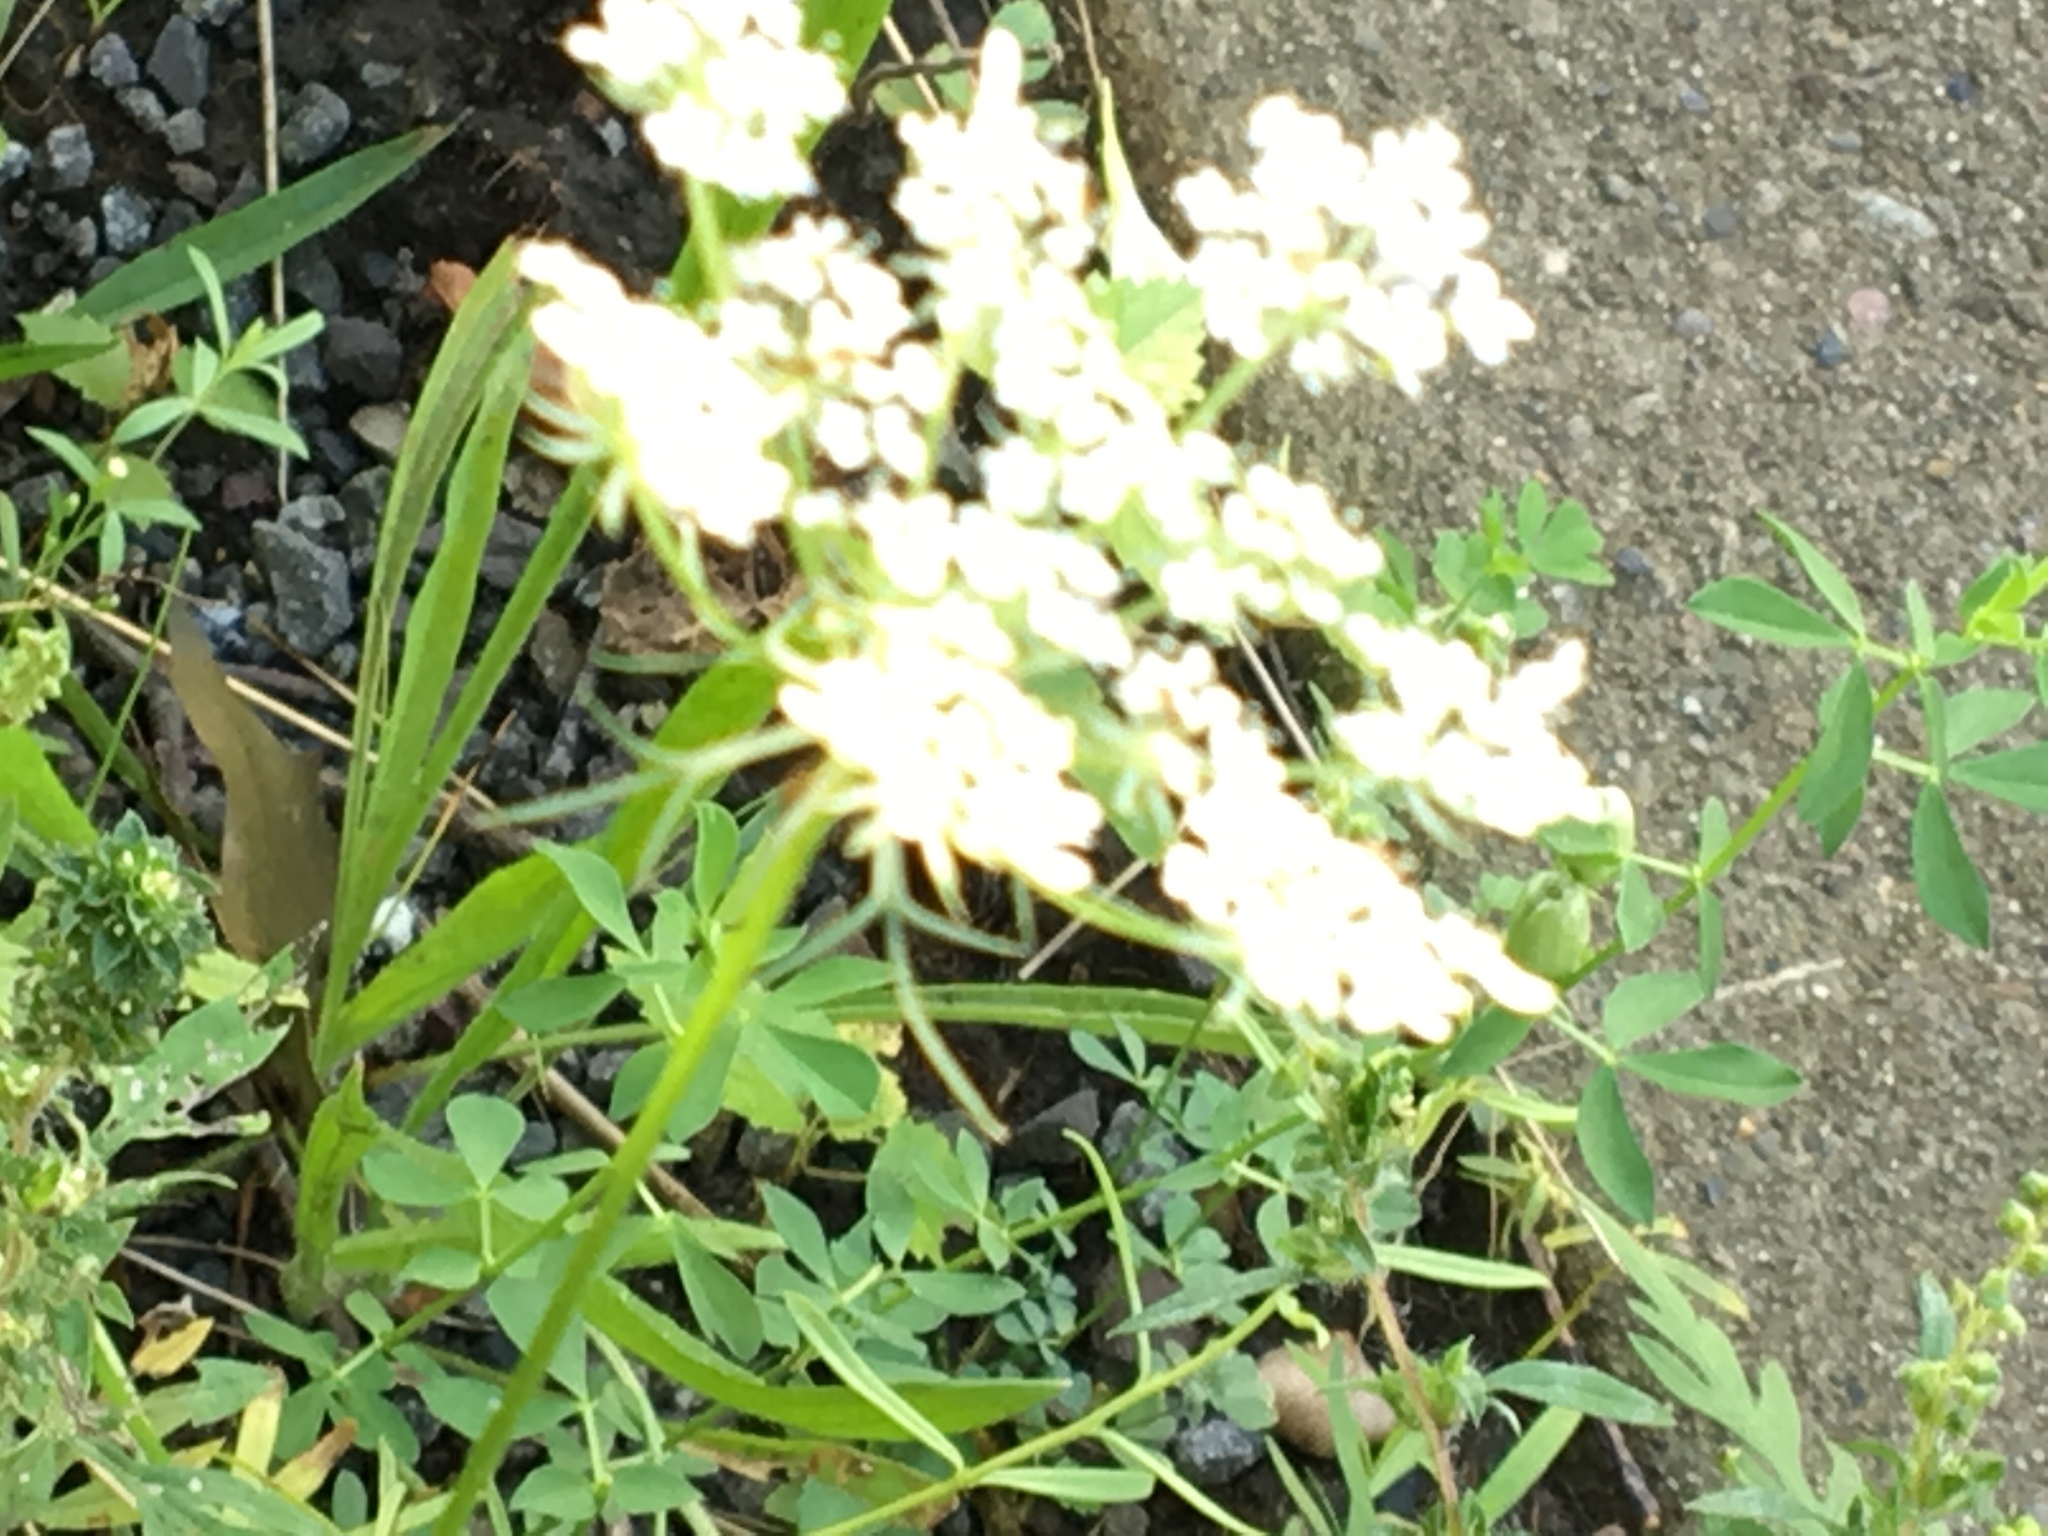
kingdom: Plantae
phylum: Tracheophyta
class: Magnoliopsida
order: Apiales
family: Apiaceae
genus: Daucus
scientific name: Daucus carota
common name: Wild carrot
